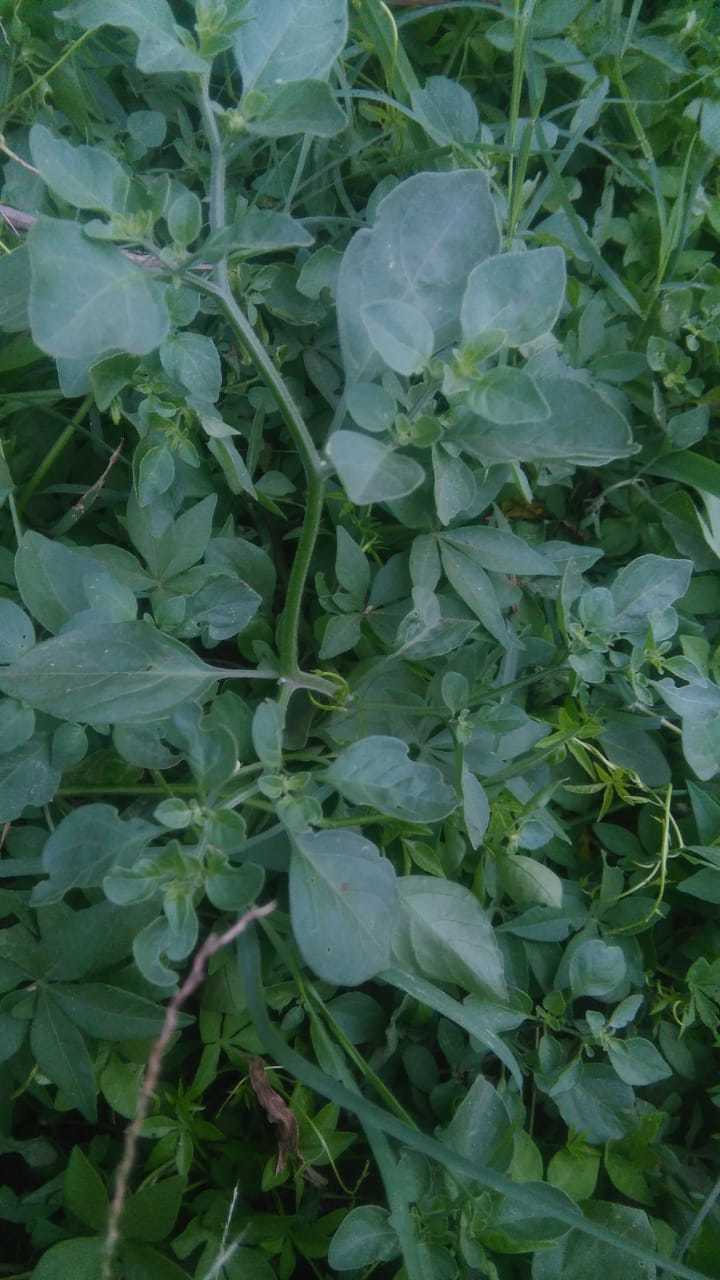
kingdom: Plantae
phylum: Tracheophyta
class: Magnoliopsida
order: Solanales
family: Solanaceae
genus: Salpichroa
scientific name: Salpichroa origanifolia
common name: Lily-of-the-valley-vine
